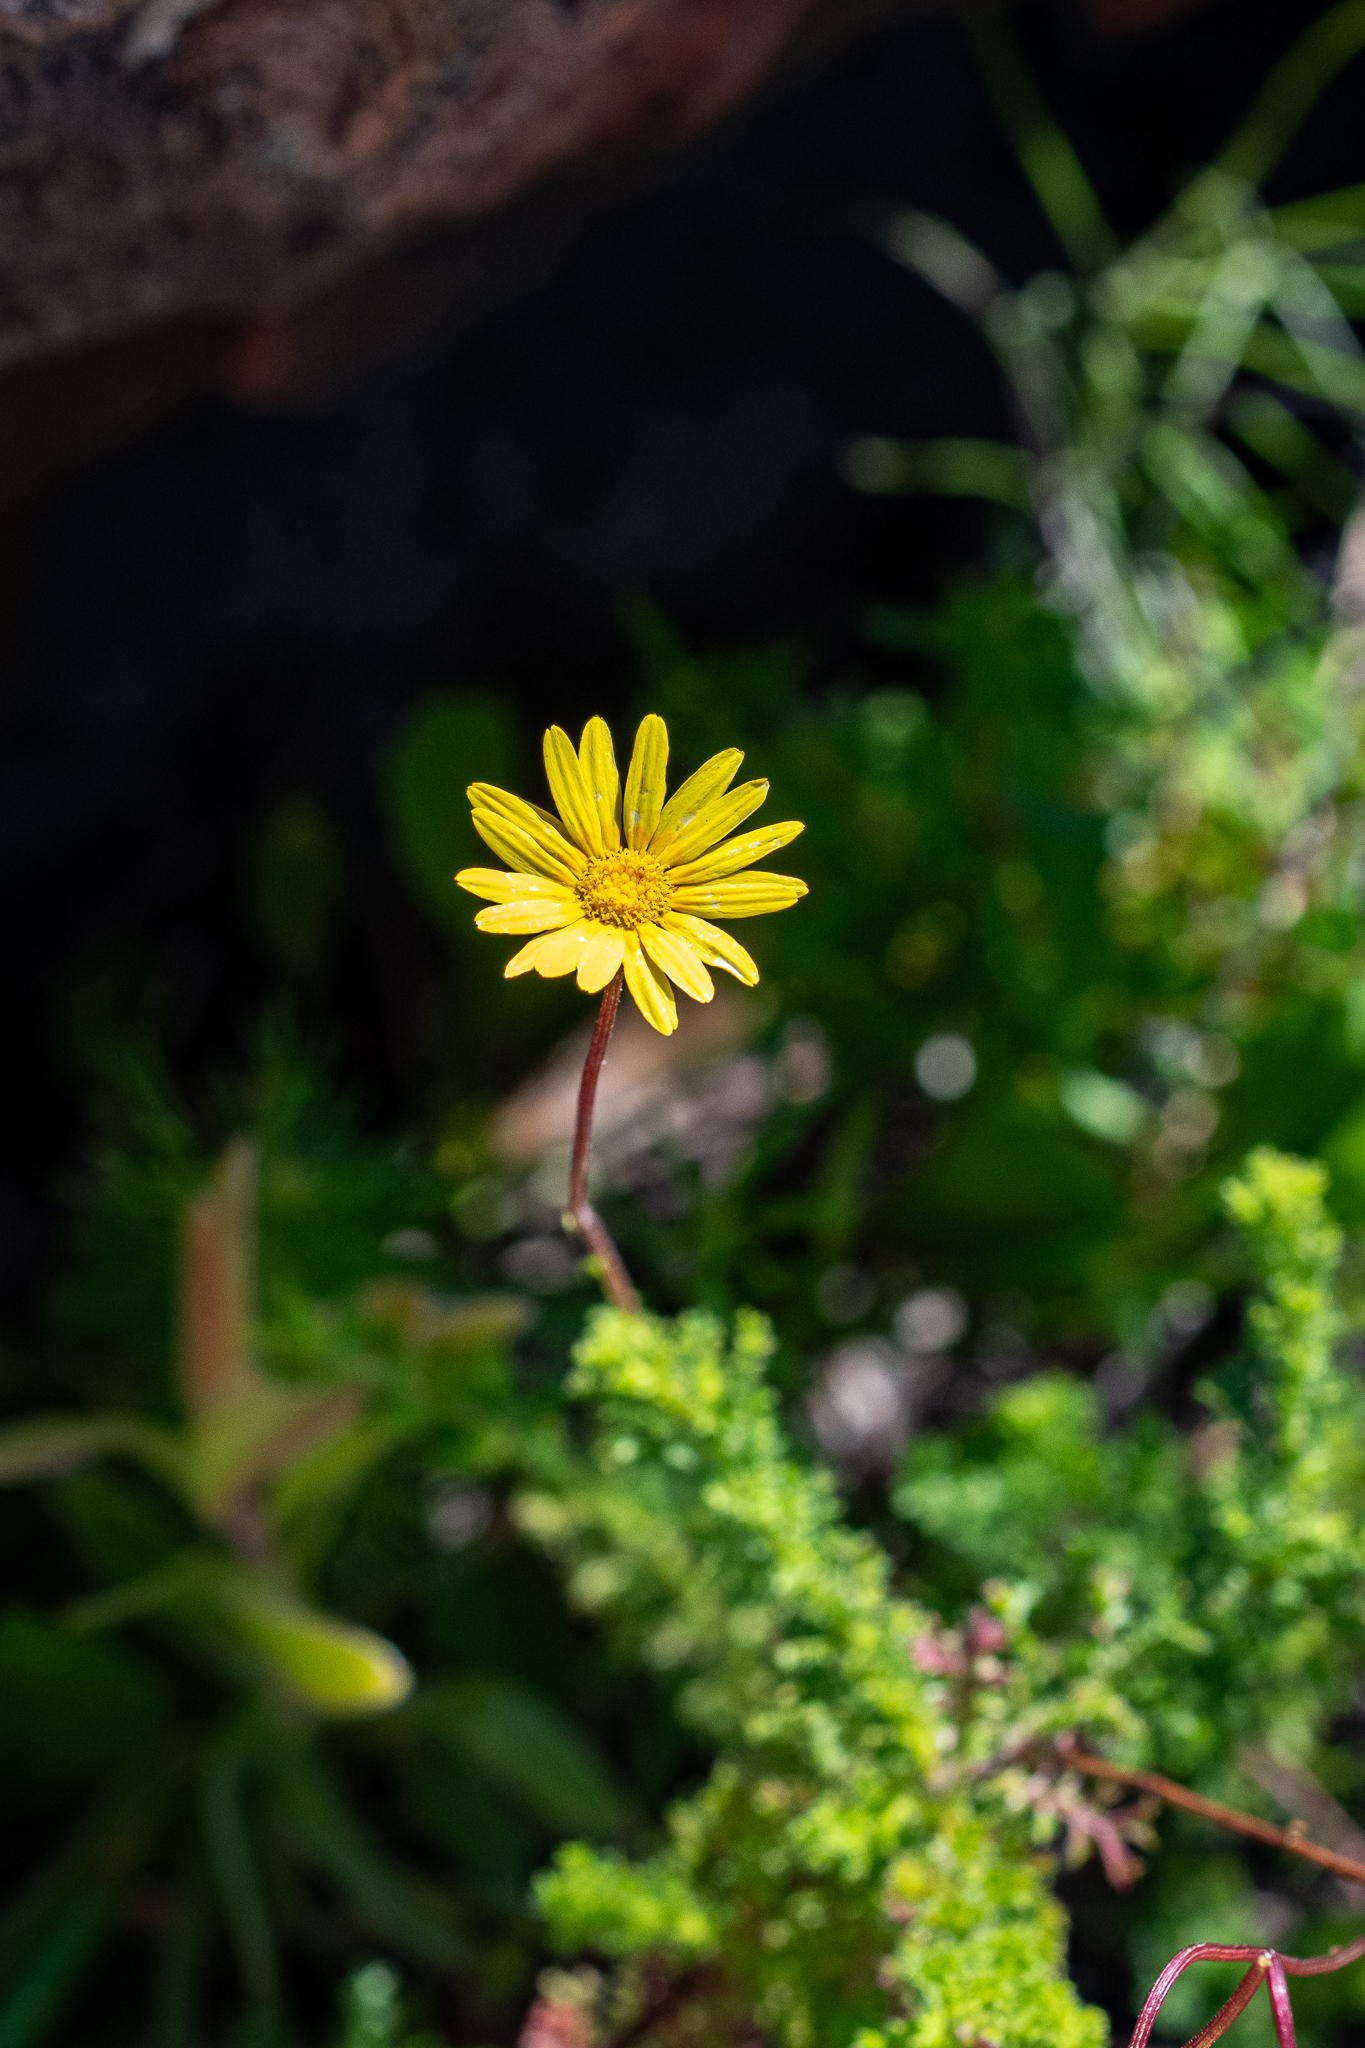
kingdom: Plantae
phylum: Tracheophyta
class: Magnoliopsida
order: Asterales
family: Asteraceae
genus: Ursinia
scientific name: Ursinia dentata
